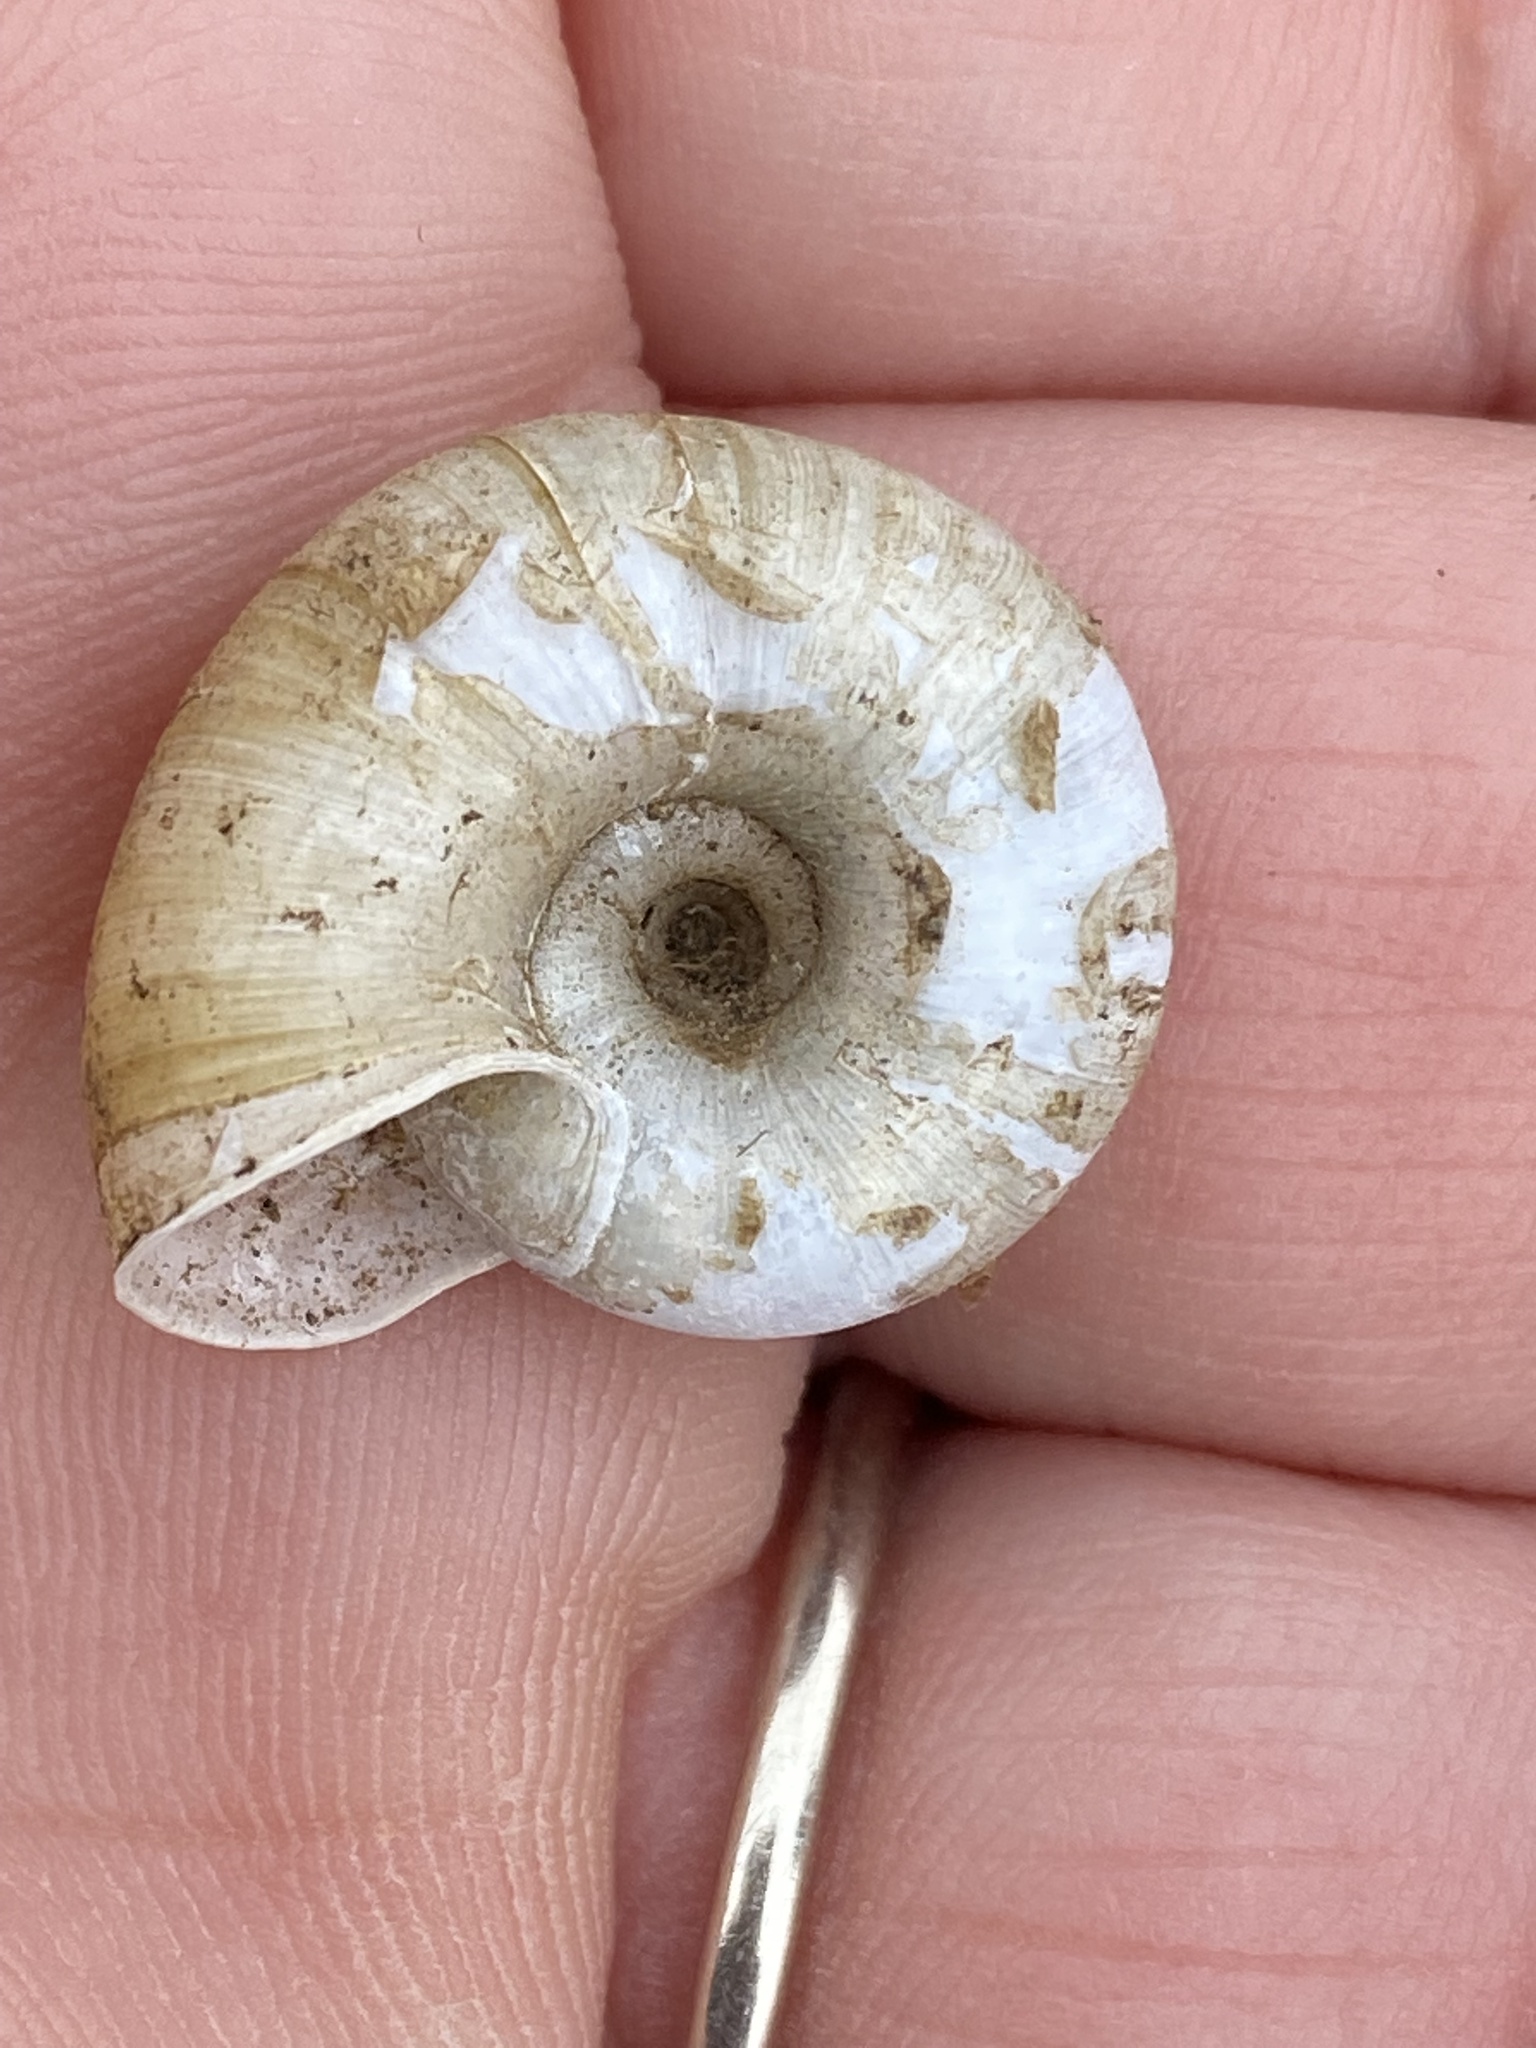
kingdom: Animalia
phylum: Mollusca
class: Gastropoda
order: Stylommatophora
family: Haplotrematidae
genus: Haplotrema
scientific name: Haplotrema minimum
